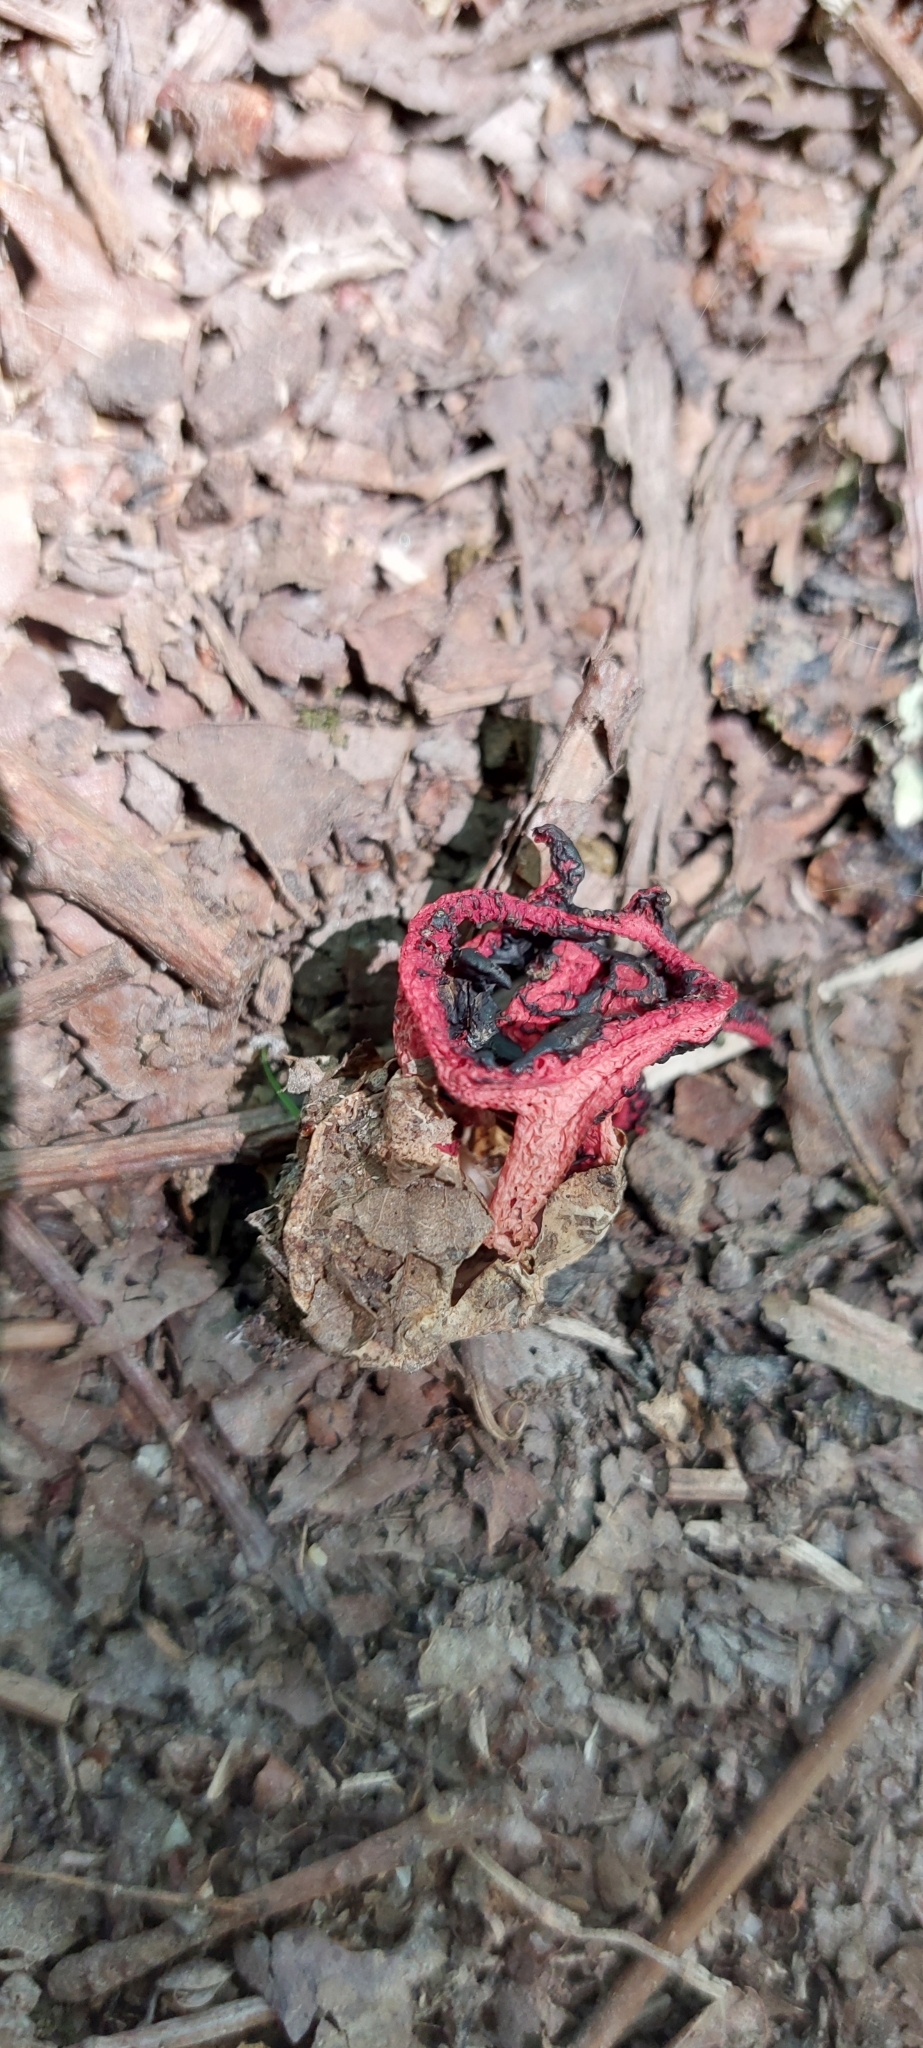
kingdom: Fungi
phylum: Basidiomycota
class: Agaricomycetes
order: Phallales
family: Phallaceae
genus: Clathrus
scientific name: Clathrus ruber
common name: Red cage
